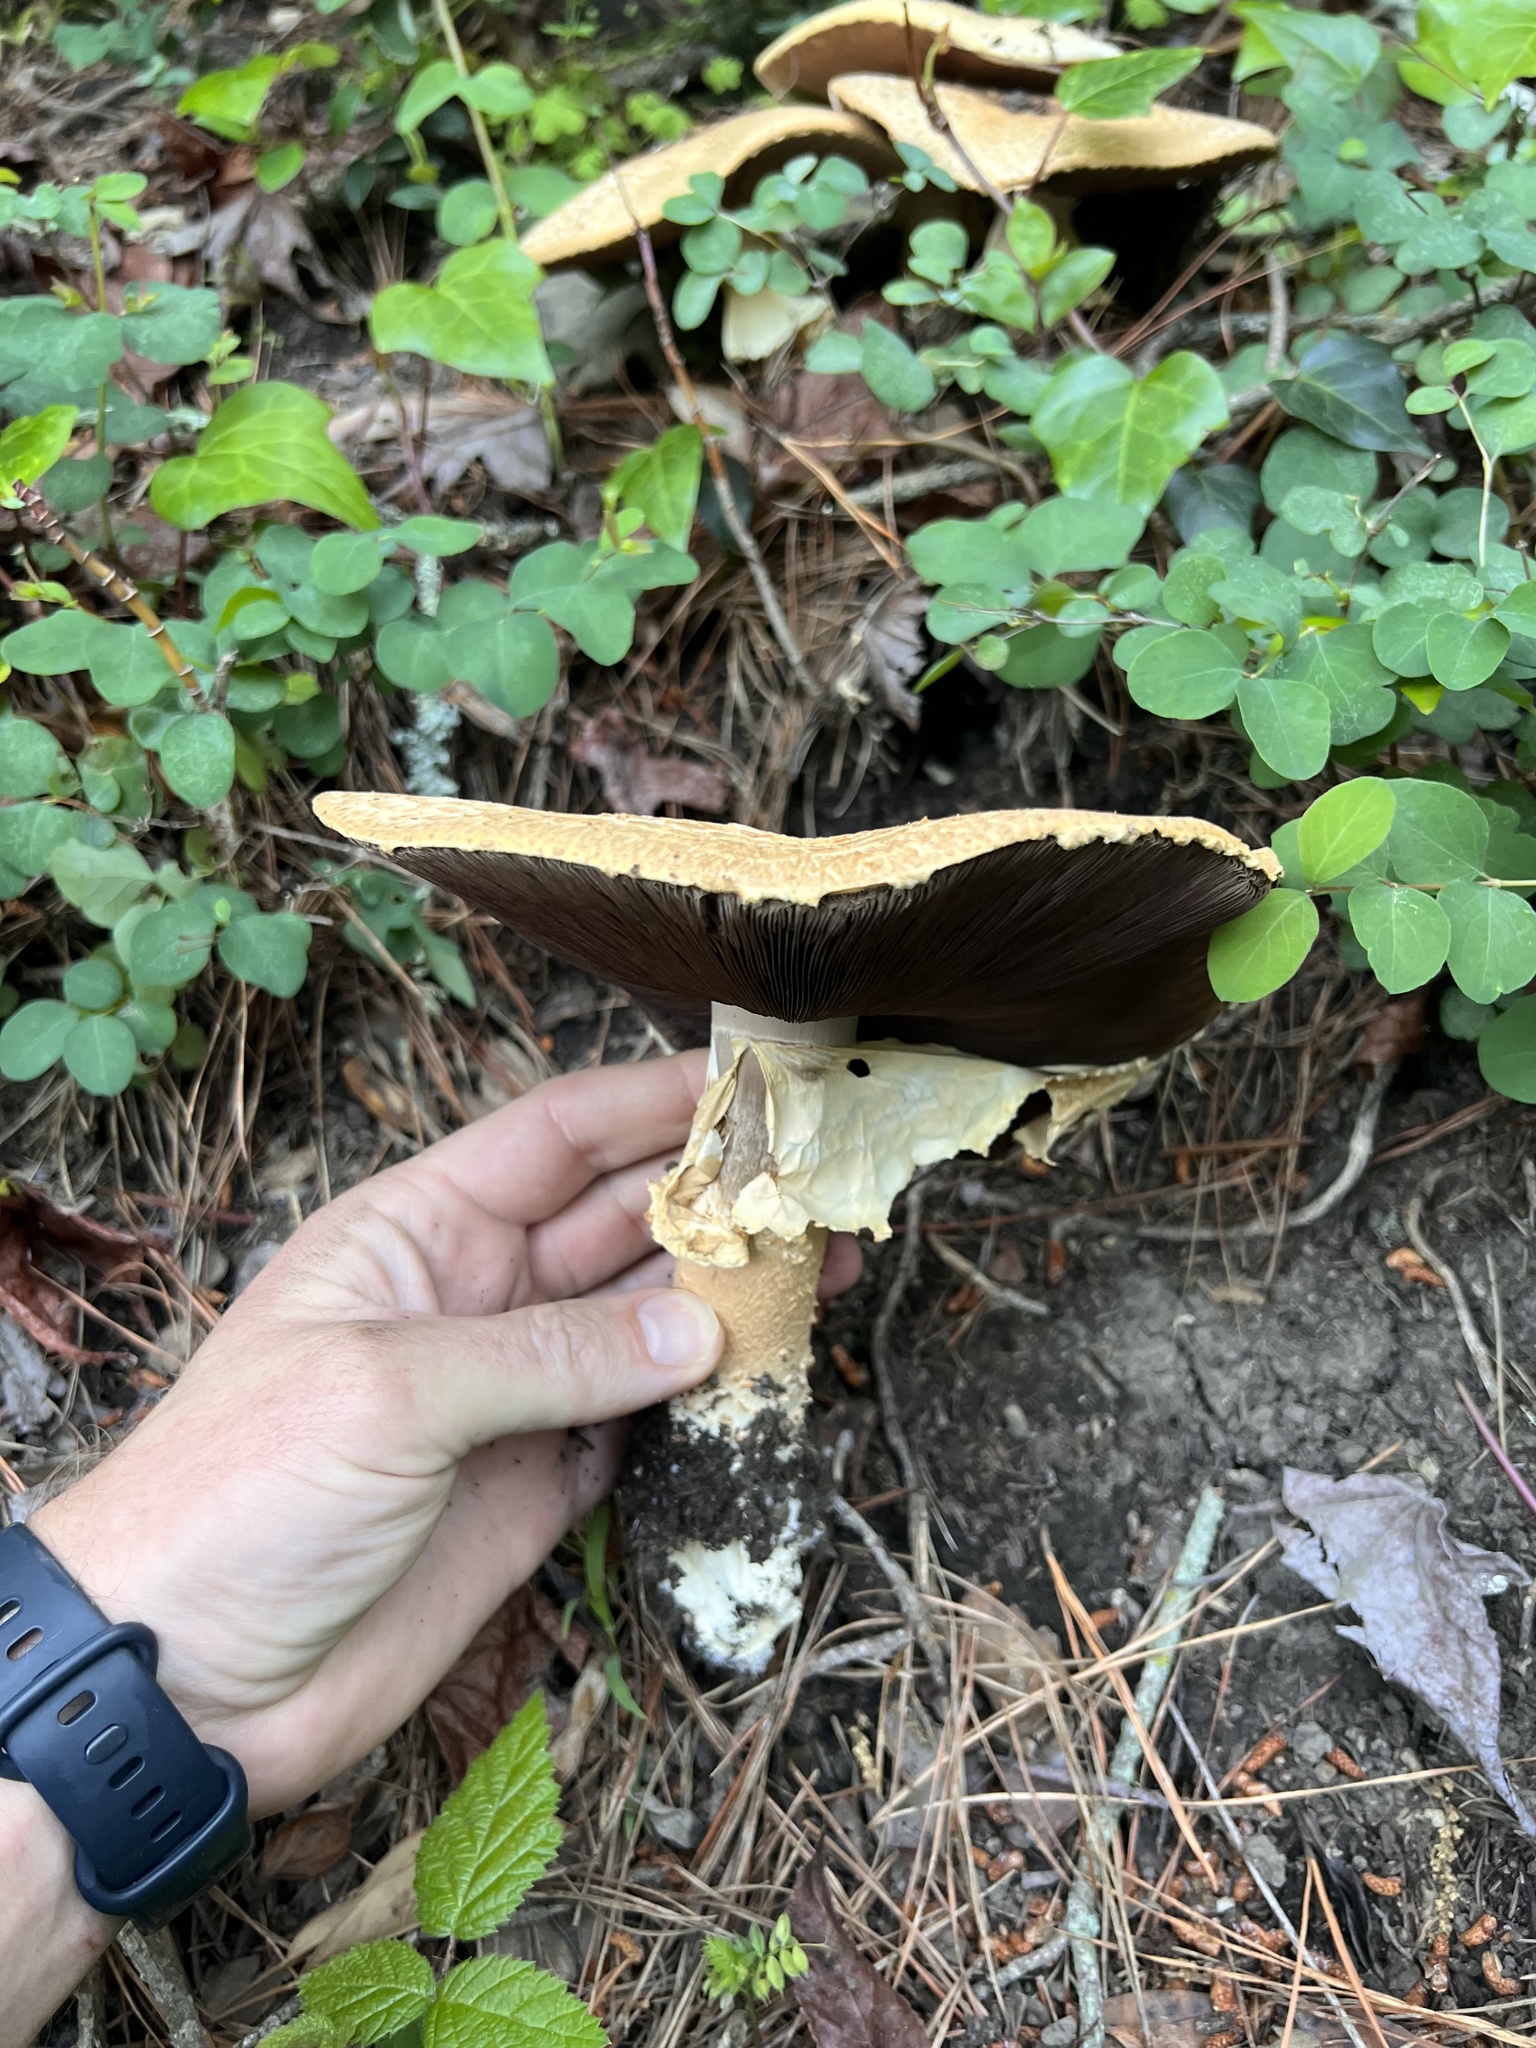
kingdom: Fungi
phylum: Basidiomycota
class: Agaricomycetes
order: Agaricales
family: Agaricaceae
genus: Agaricus
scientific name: Agaricus augustus
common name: Prince
